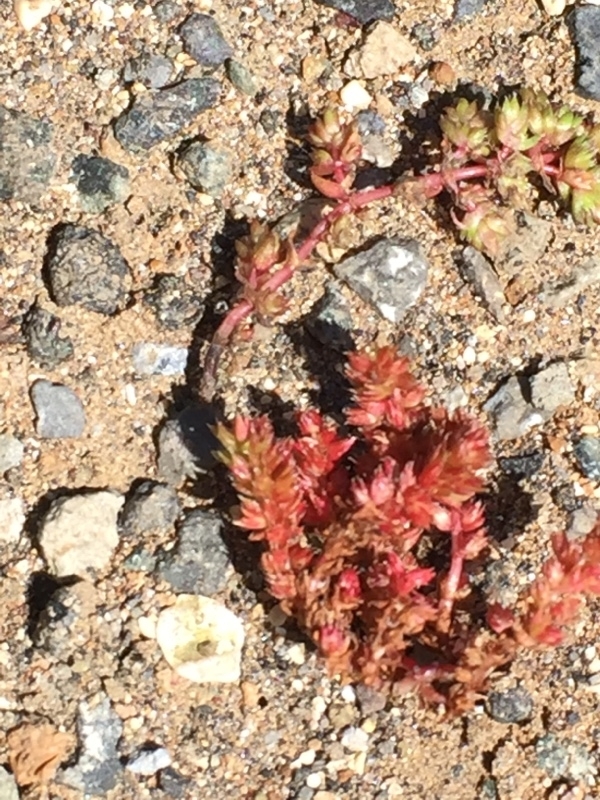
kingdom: Plantae
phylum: Tracheophyta
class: Magnoliopsida
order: Saxifragales
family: Crassulaceae
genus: Crassula
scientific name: Crassula tillaea
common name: Mossy stonecrop
